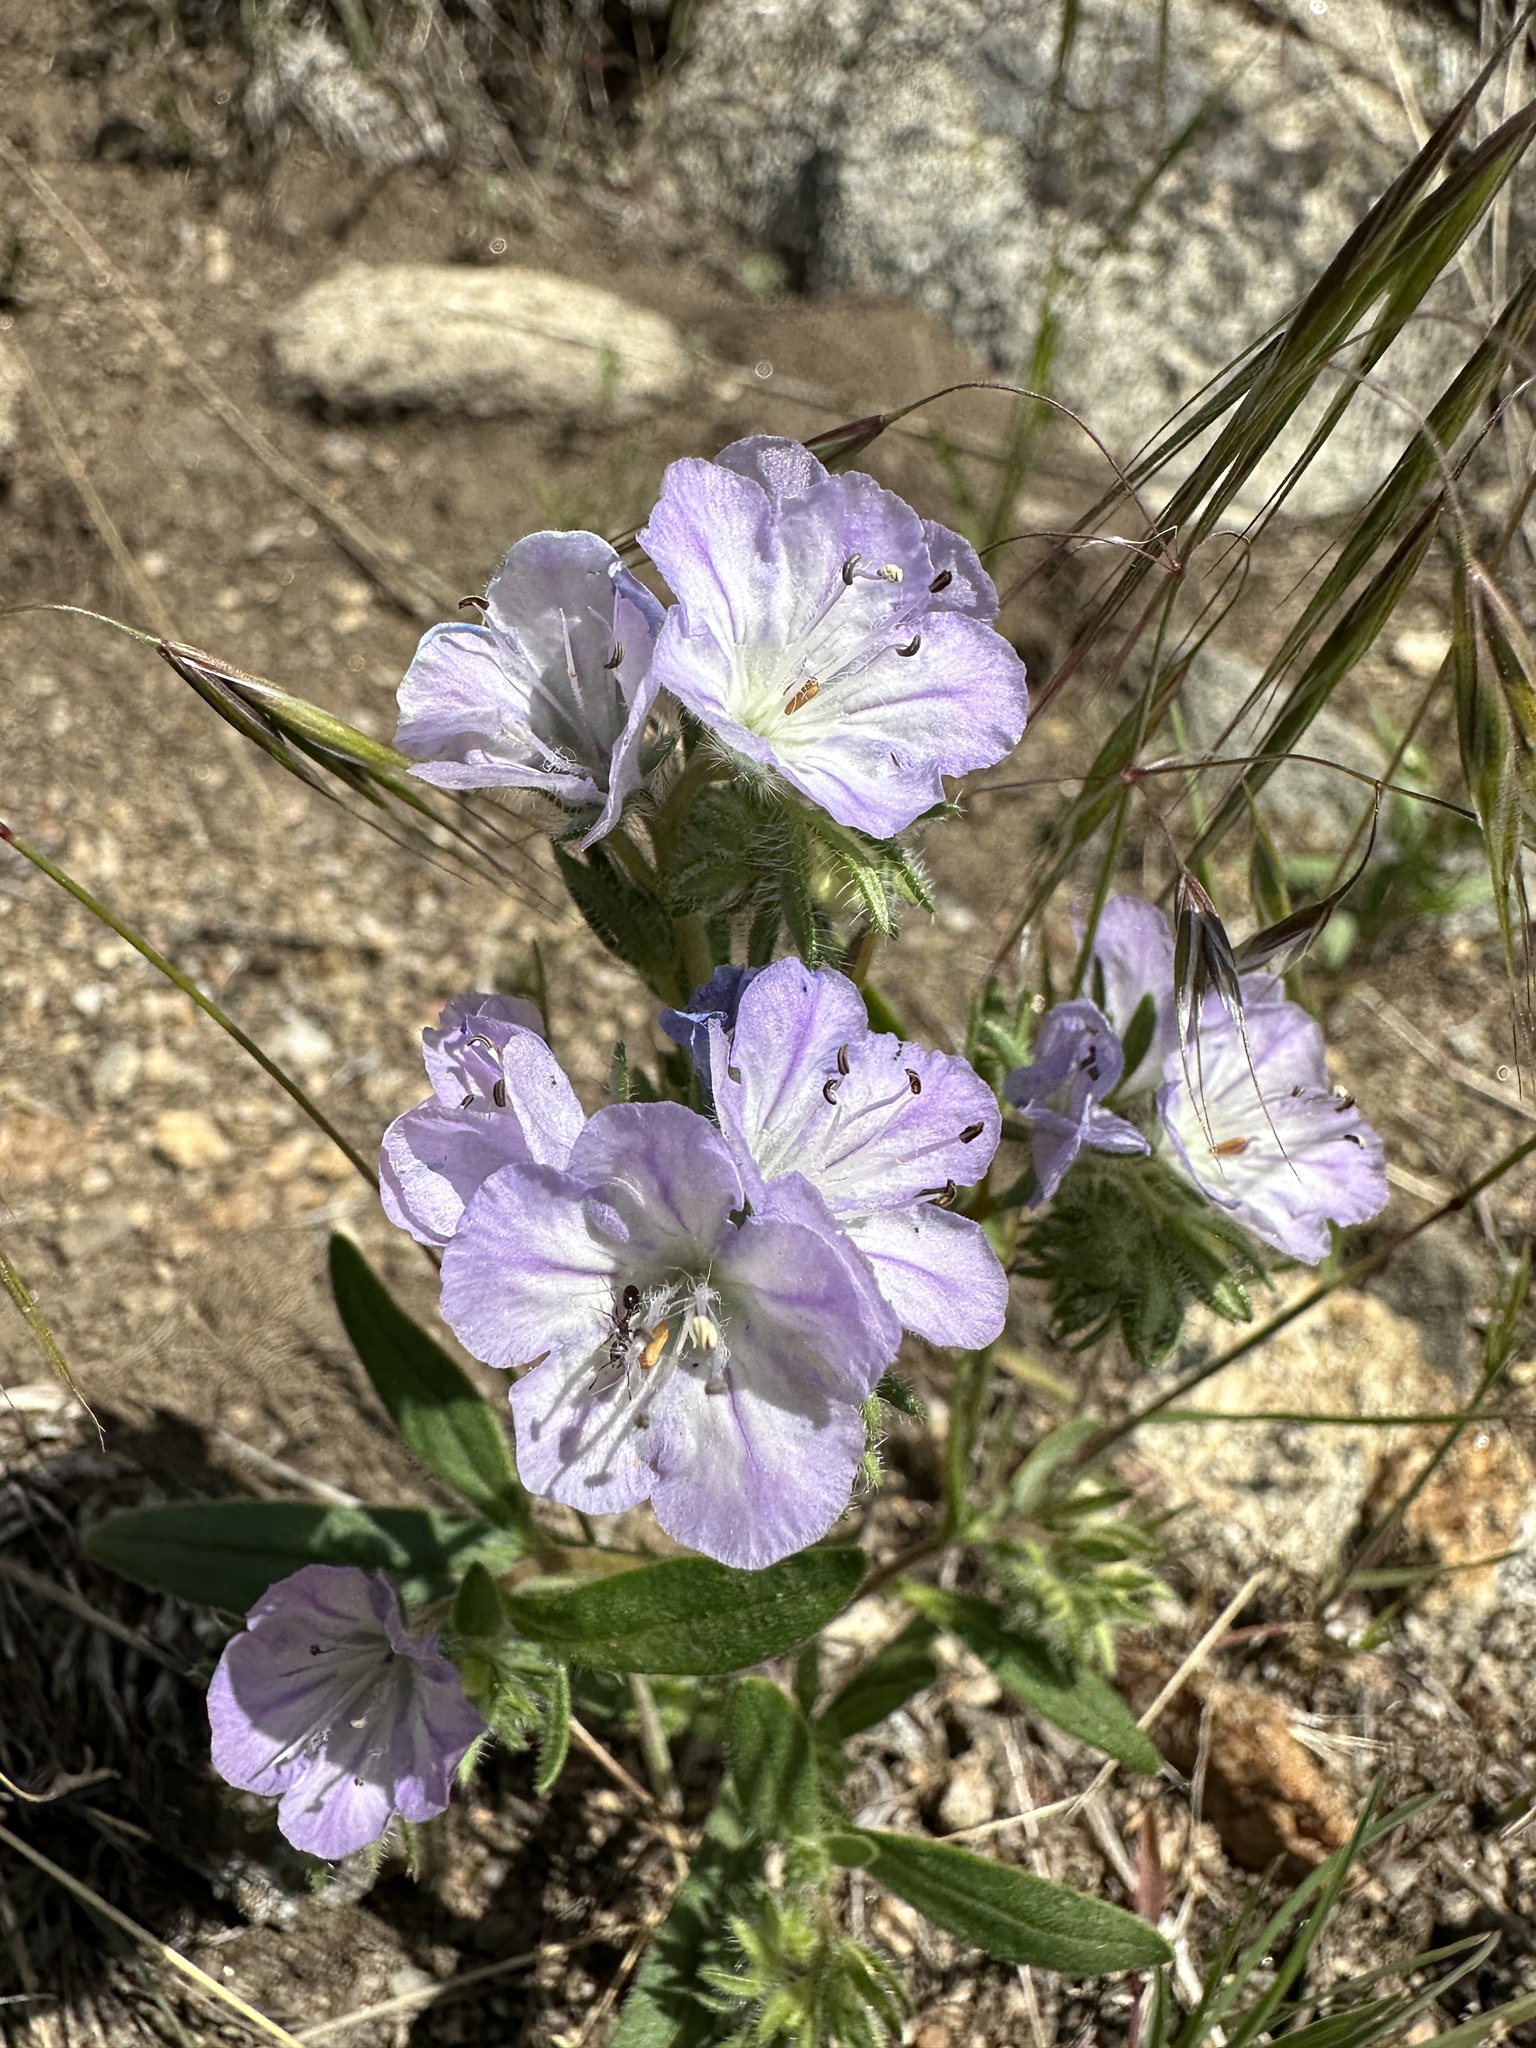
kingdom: Plantae
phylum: Tracheophyta
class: Magnoliopsida
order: Boraginales
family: Hydrophyllaceae
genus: Phacelia
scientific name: Phacelia linearis
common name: Linear-leaved phacelia
